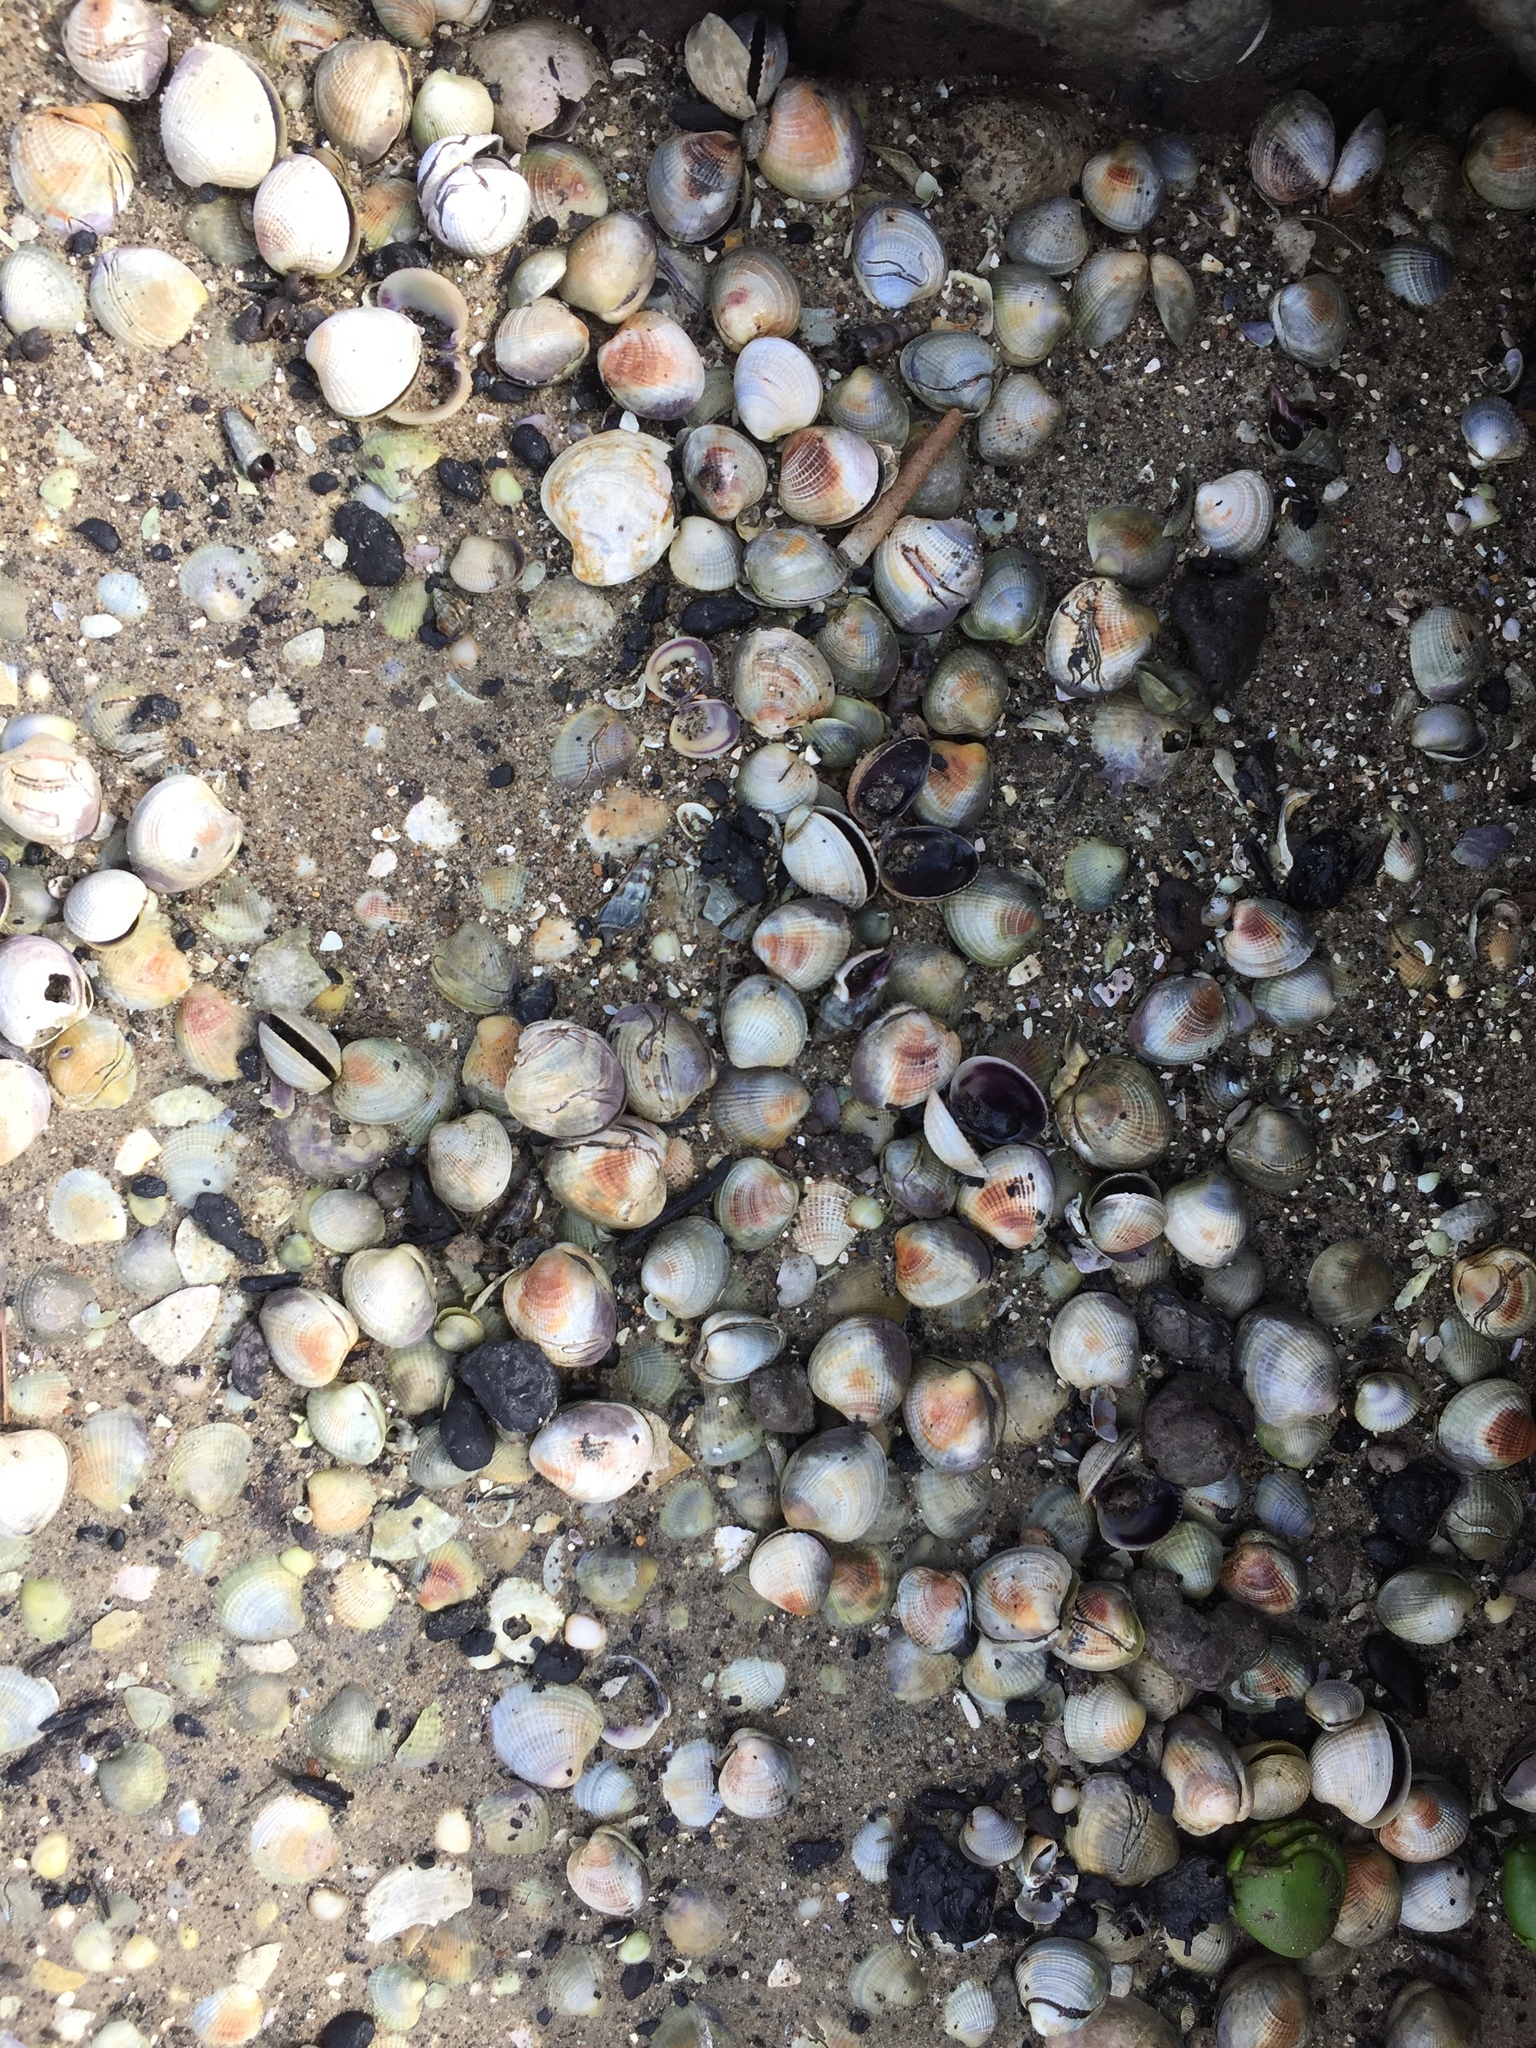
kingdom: Animalia
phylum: Mollusca
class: Bivalvia
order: Venerida
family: Veneridae
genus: Austrovenus
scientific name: Austrovenus stutchburyi
